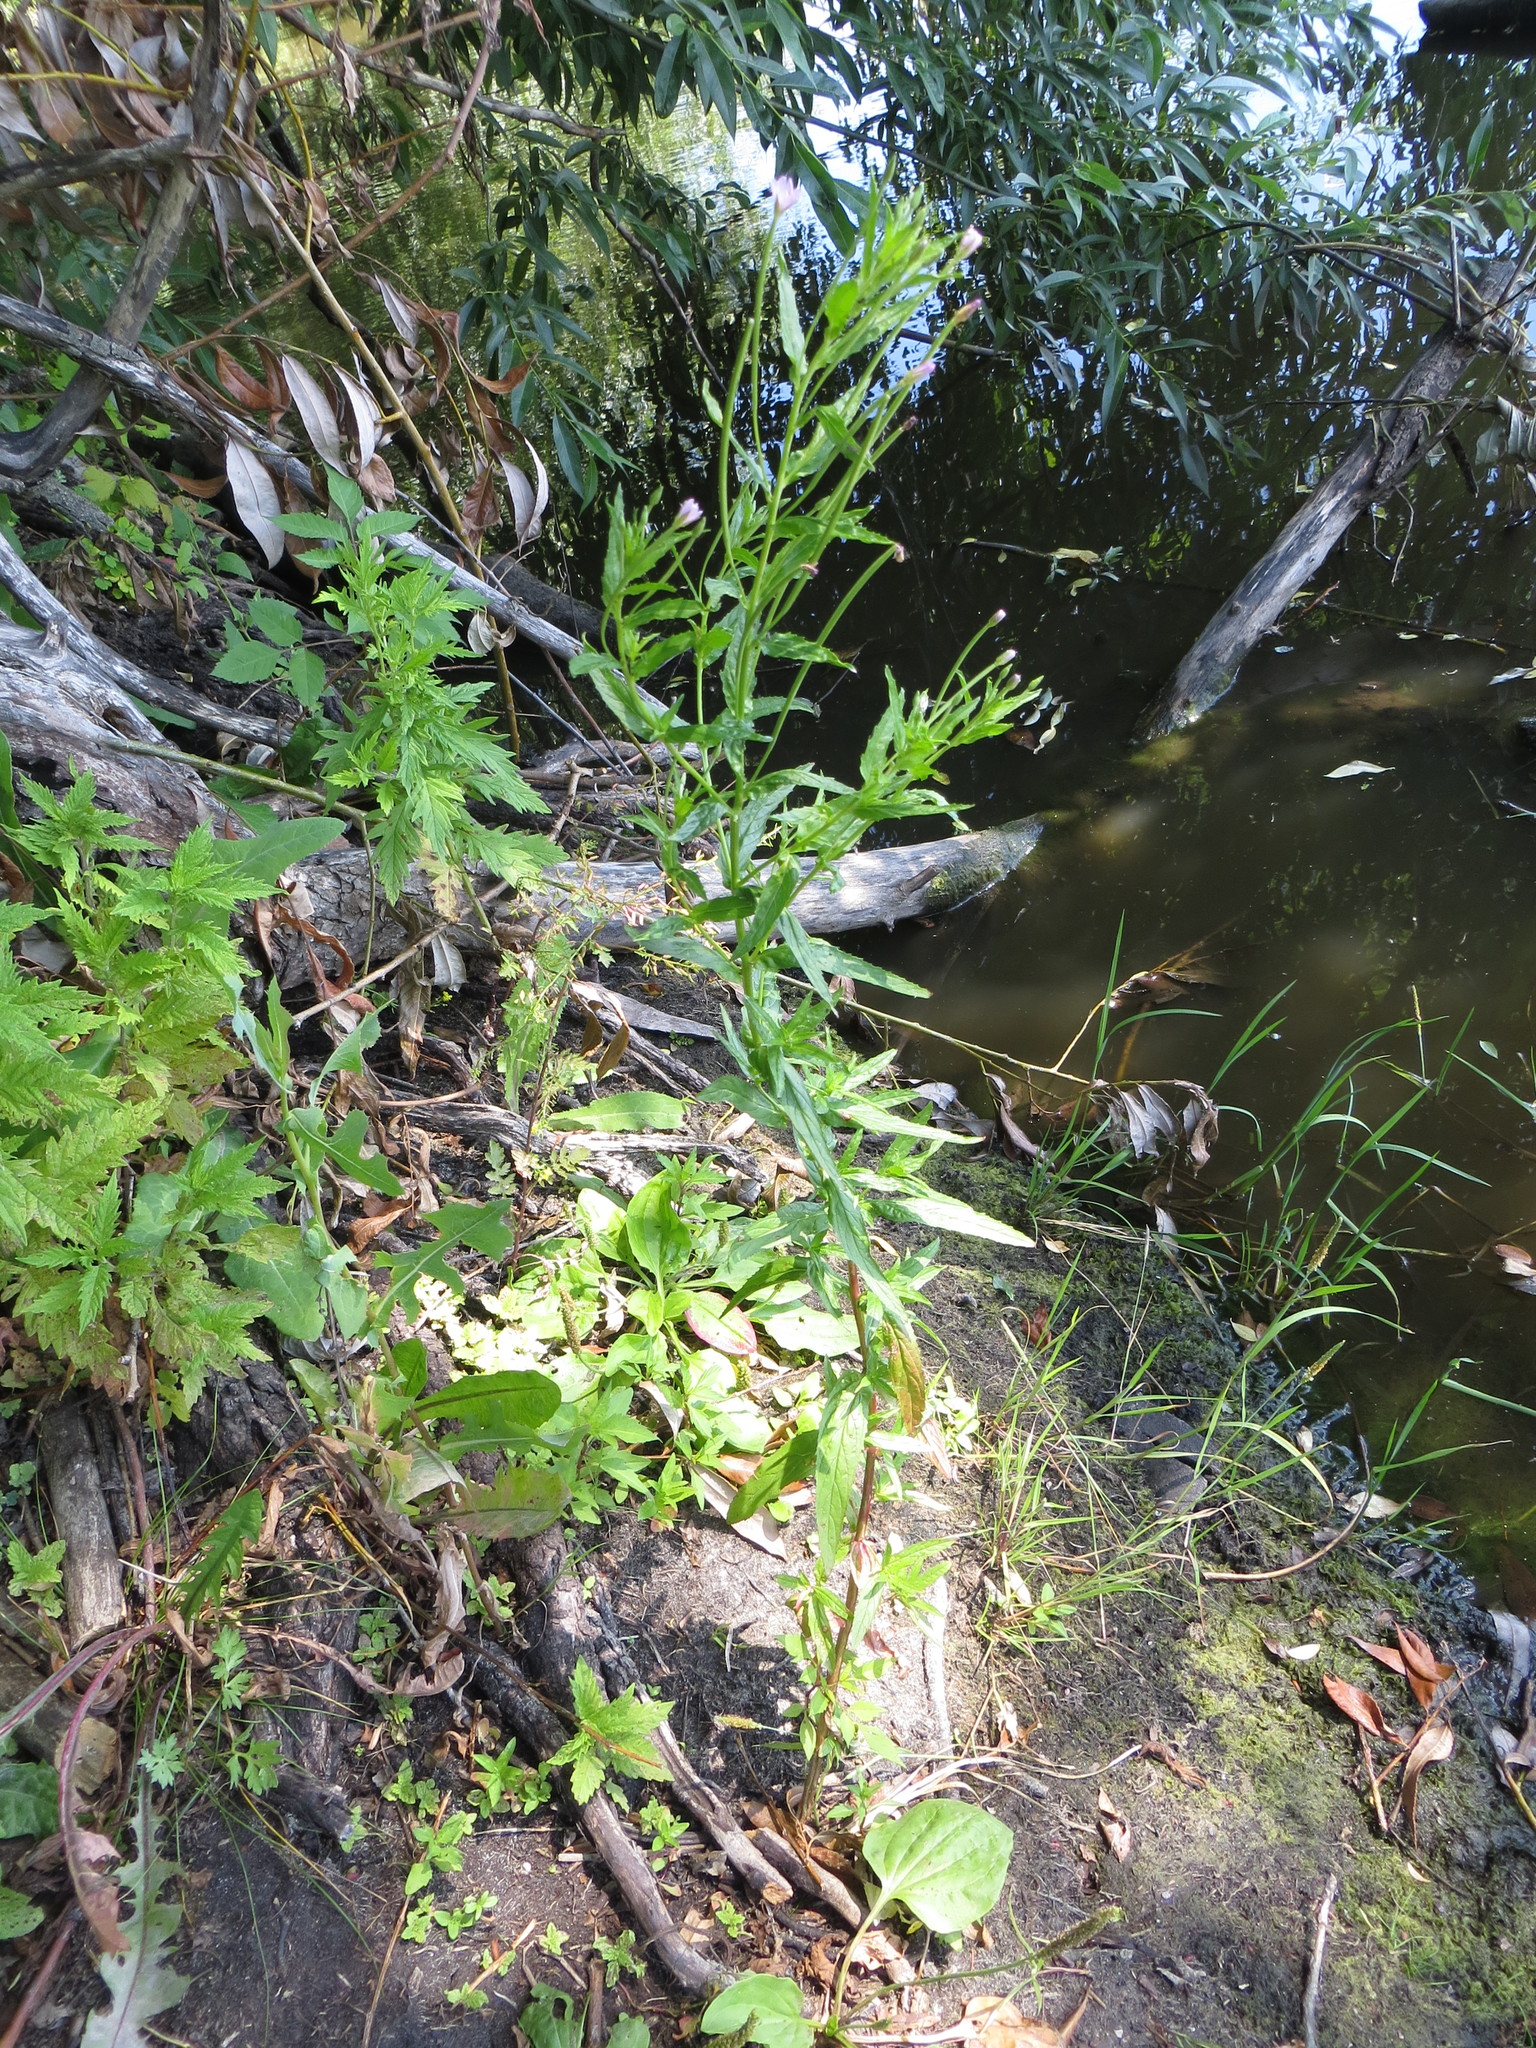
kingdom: Plantae
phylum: Tracheophyta
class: Magnoliopsida
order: Myrtales
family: Onagraceae
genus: Epilobium
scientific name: Epilobium tetragonum
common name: Square-stemmed willowherb
